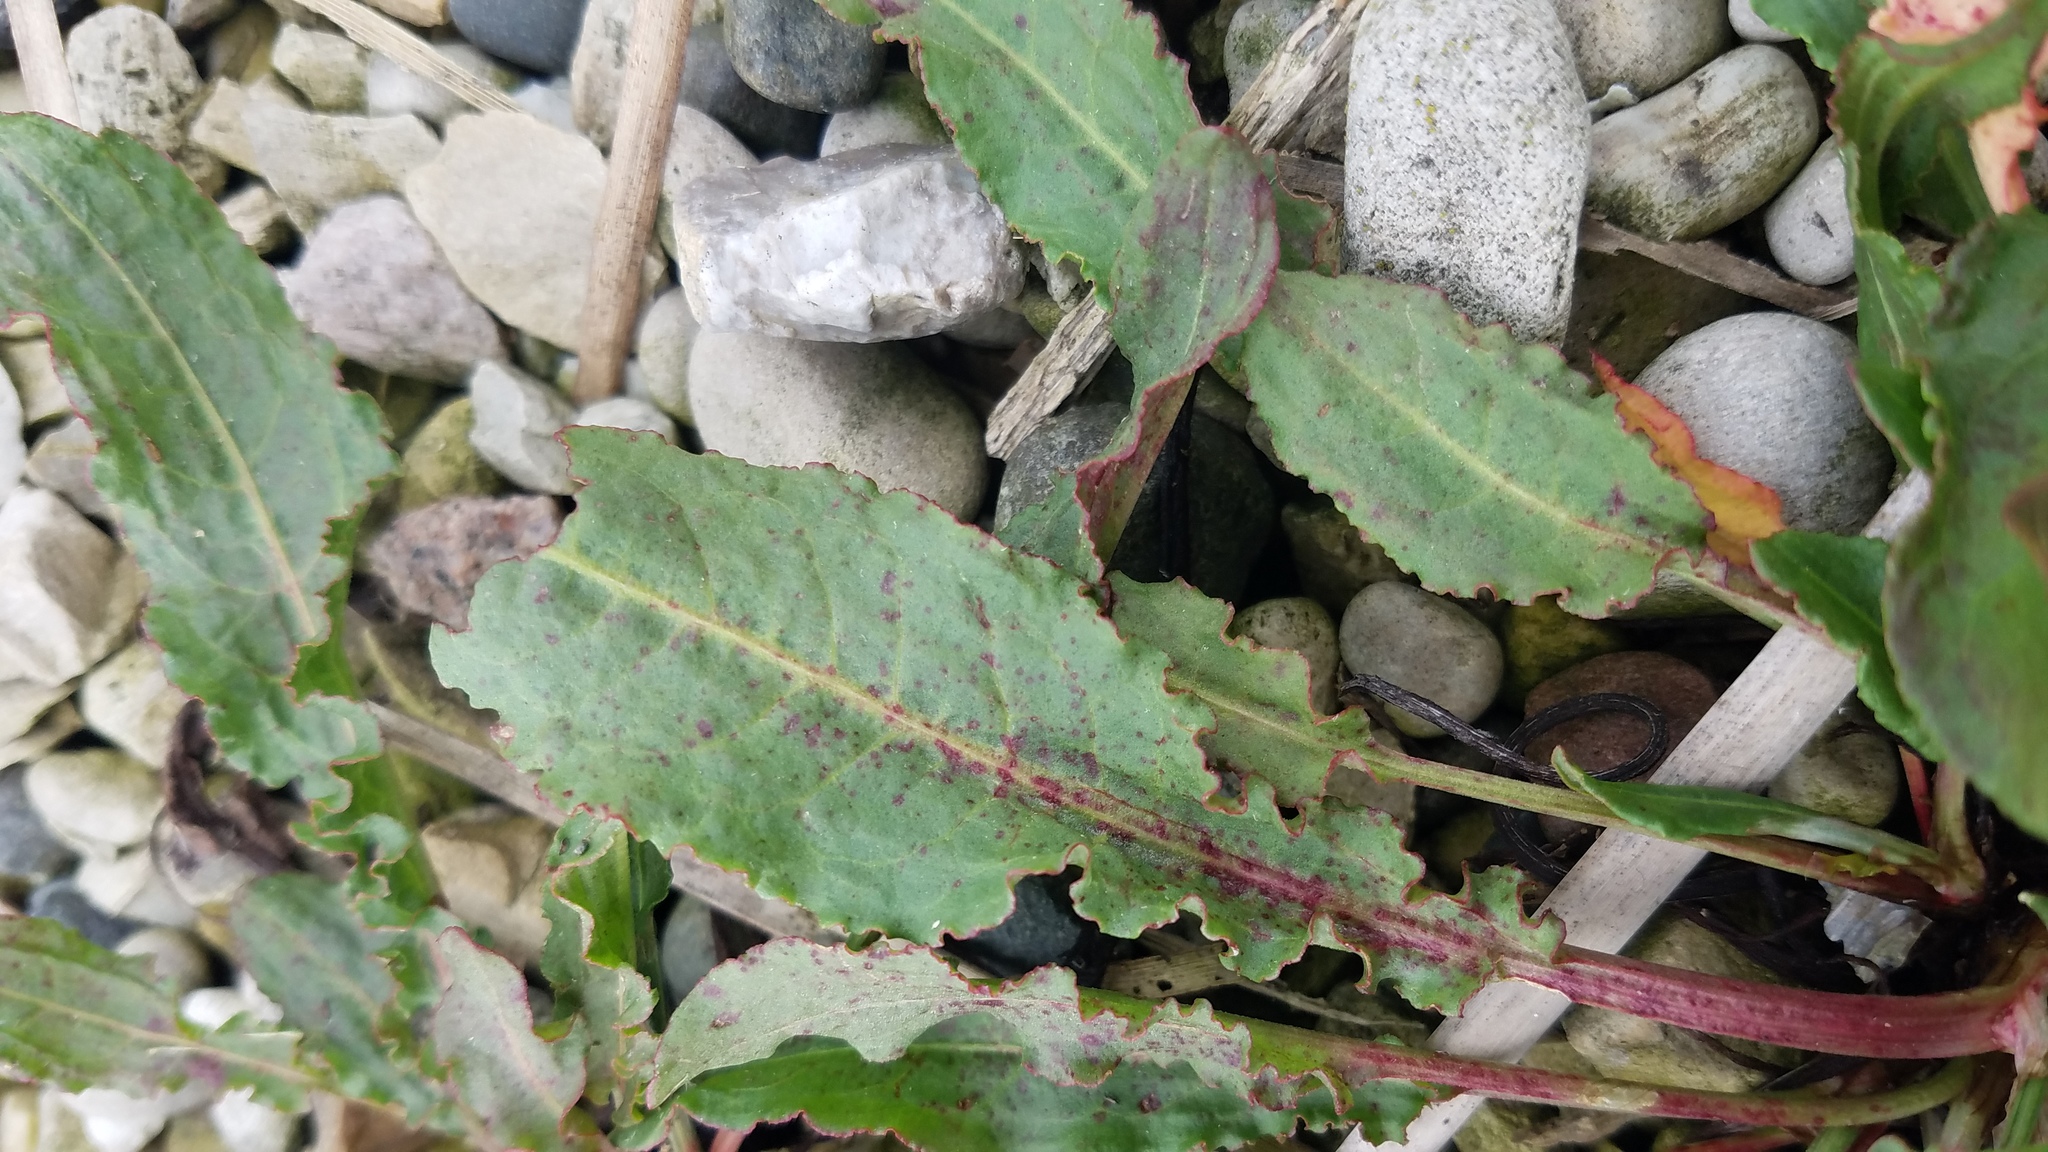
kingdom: Plantae
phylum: Tracheophyta
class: Magnoliopsida
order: Caryophyllales
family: Polygonaceae
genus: Rumex
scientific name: Rumex crispus
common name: Curled dock
